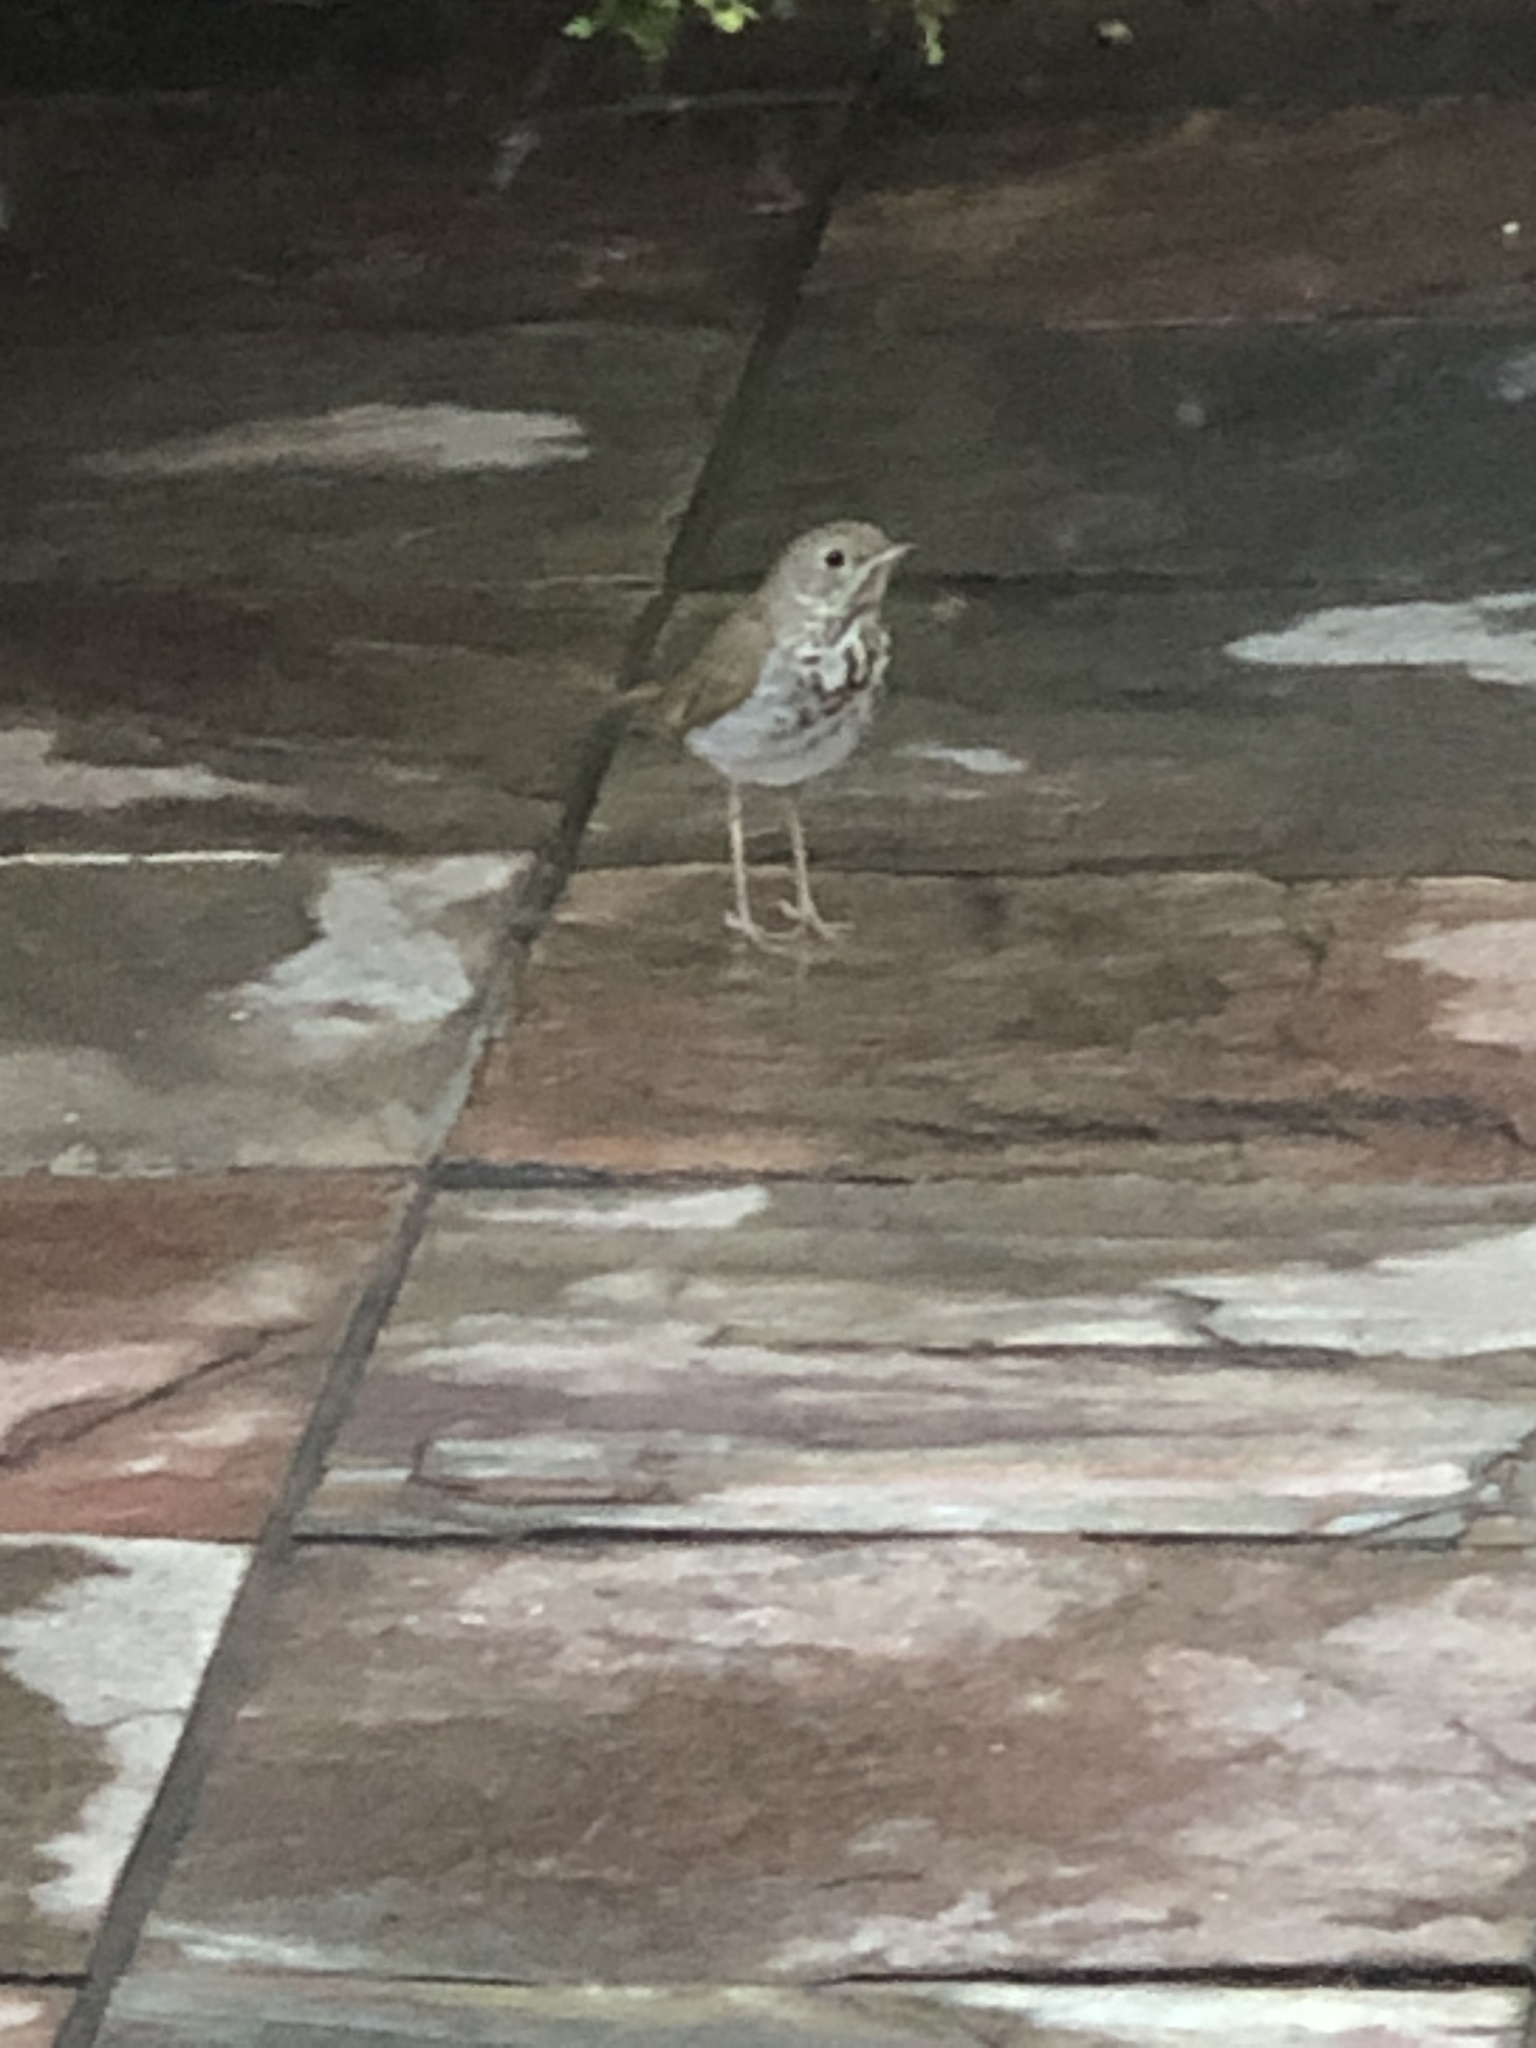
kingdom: Animalia
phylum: Chordata
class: Aves
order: Passeriformes
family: Turdidae
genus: Catharus
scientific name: Catharus guttatus
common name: Hermit thrush
